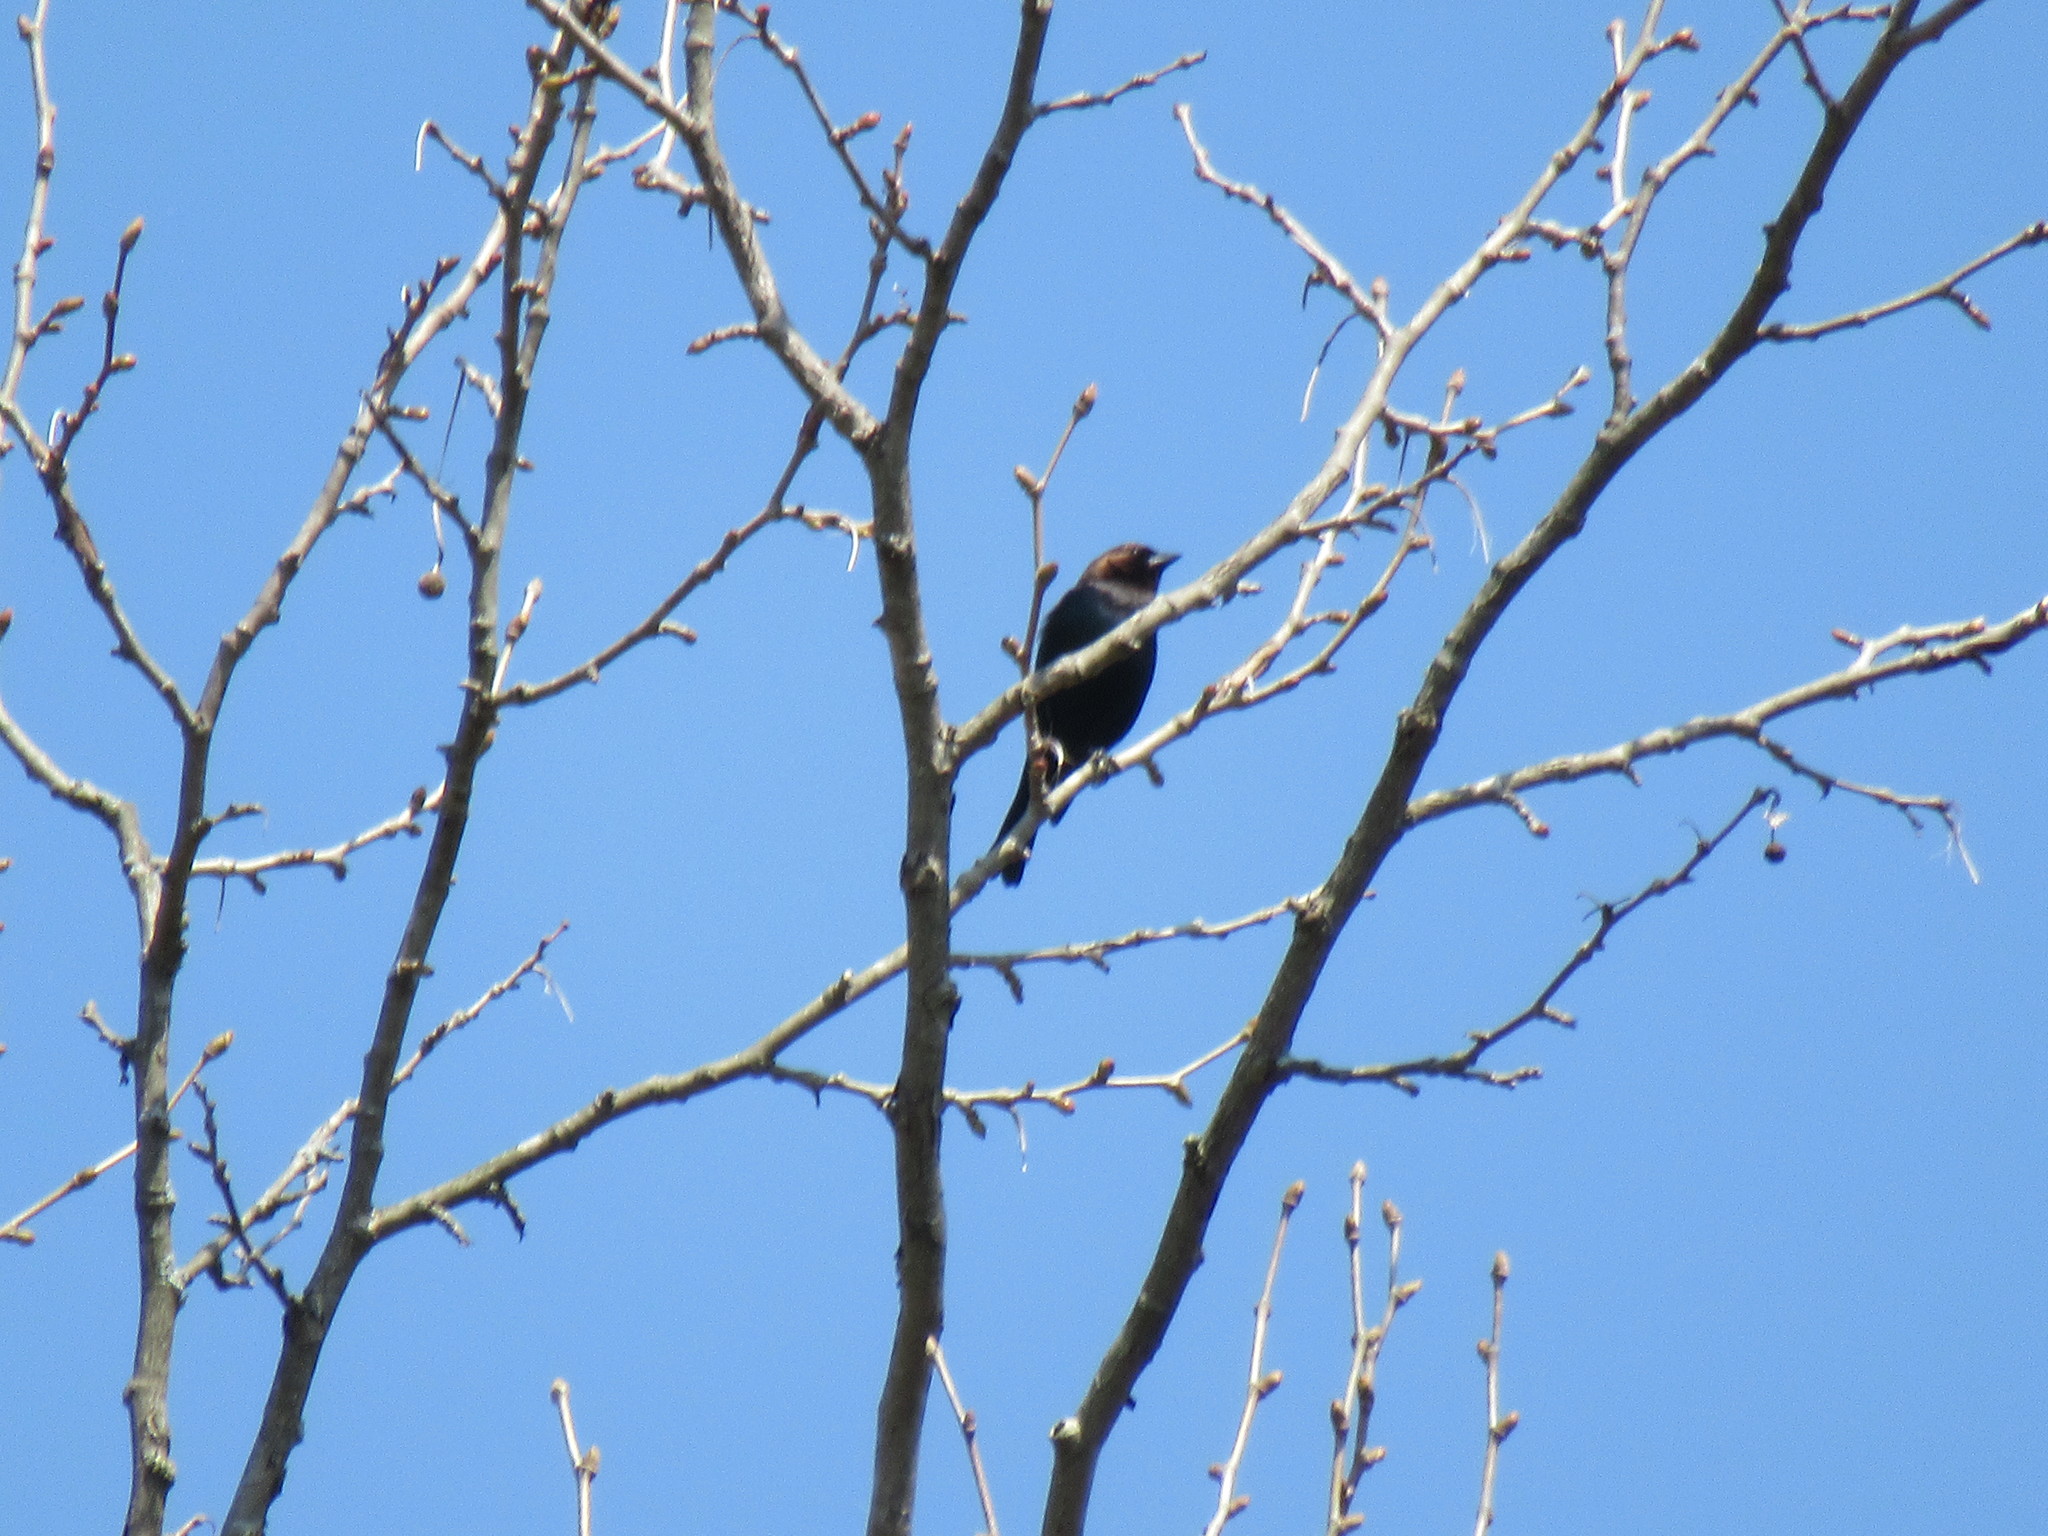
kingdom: Animalia
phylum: Chordata
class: Aves
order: Passeriformes
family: Icteridae
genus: Molothrus
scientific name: Molothrus ater
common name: Brown-headed cowbird
